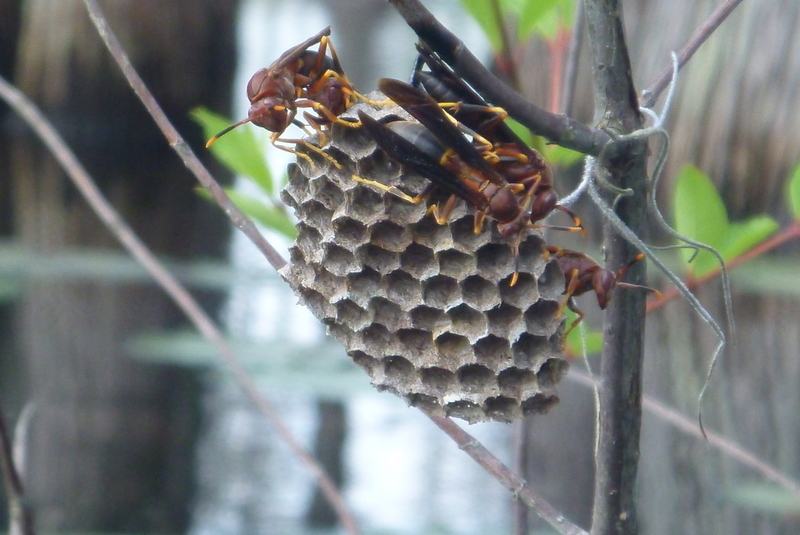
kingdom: Animalia
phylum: Arthropoda
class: Insecta
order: Hymenoptera
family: Eumenidae
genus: Polistes
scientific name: Polistes annularis
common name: Ringed paper wasp
